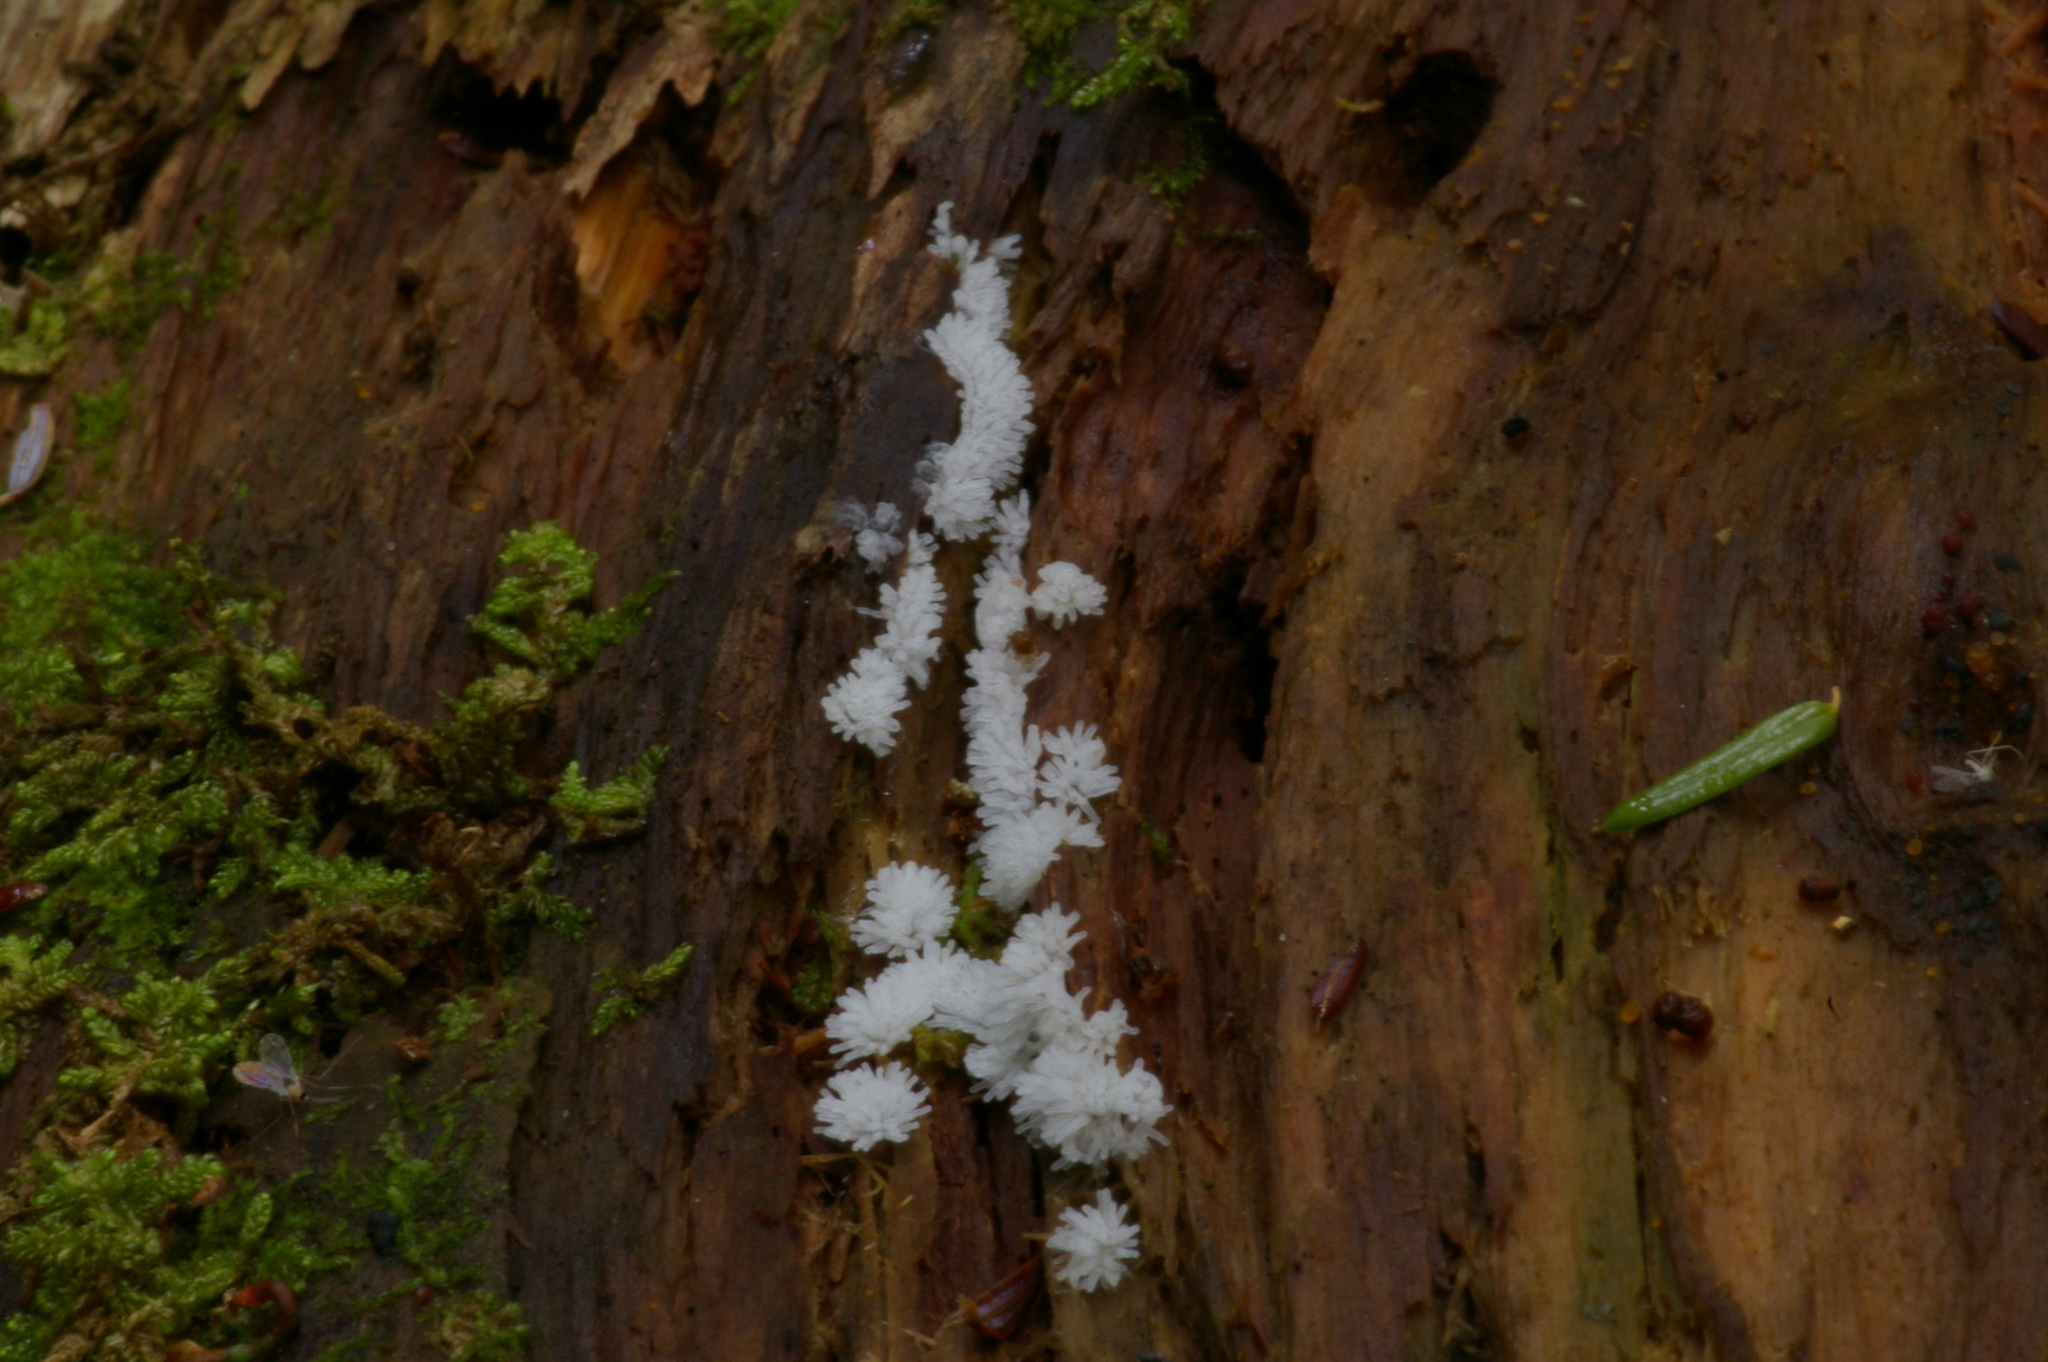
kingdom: Protozoa
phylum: Mycetozoa
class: Protosteliomycetes
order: Ceratiomyxales
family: Ceratiomyxaceae
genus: Ceratiomyxa
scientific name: Ceratiomyxa fruticulosa
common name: Honeycomb coral slime mold
